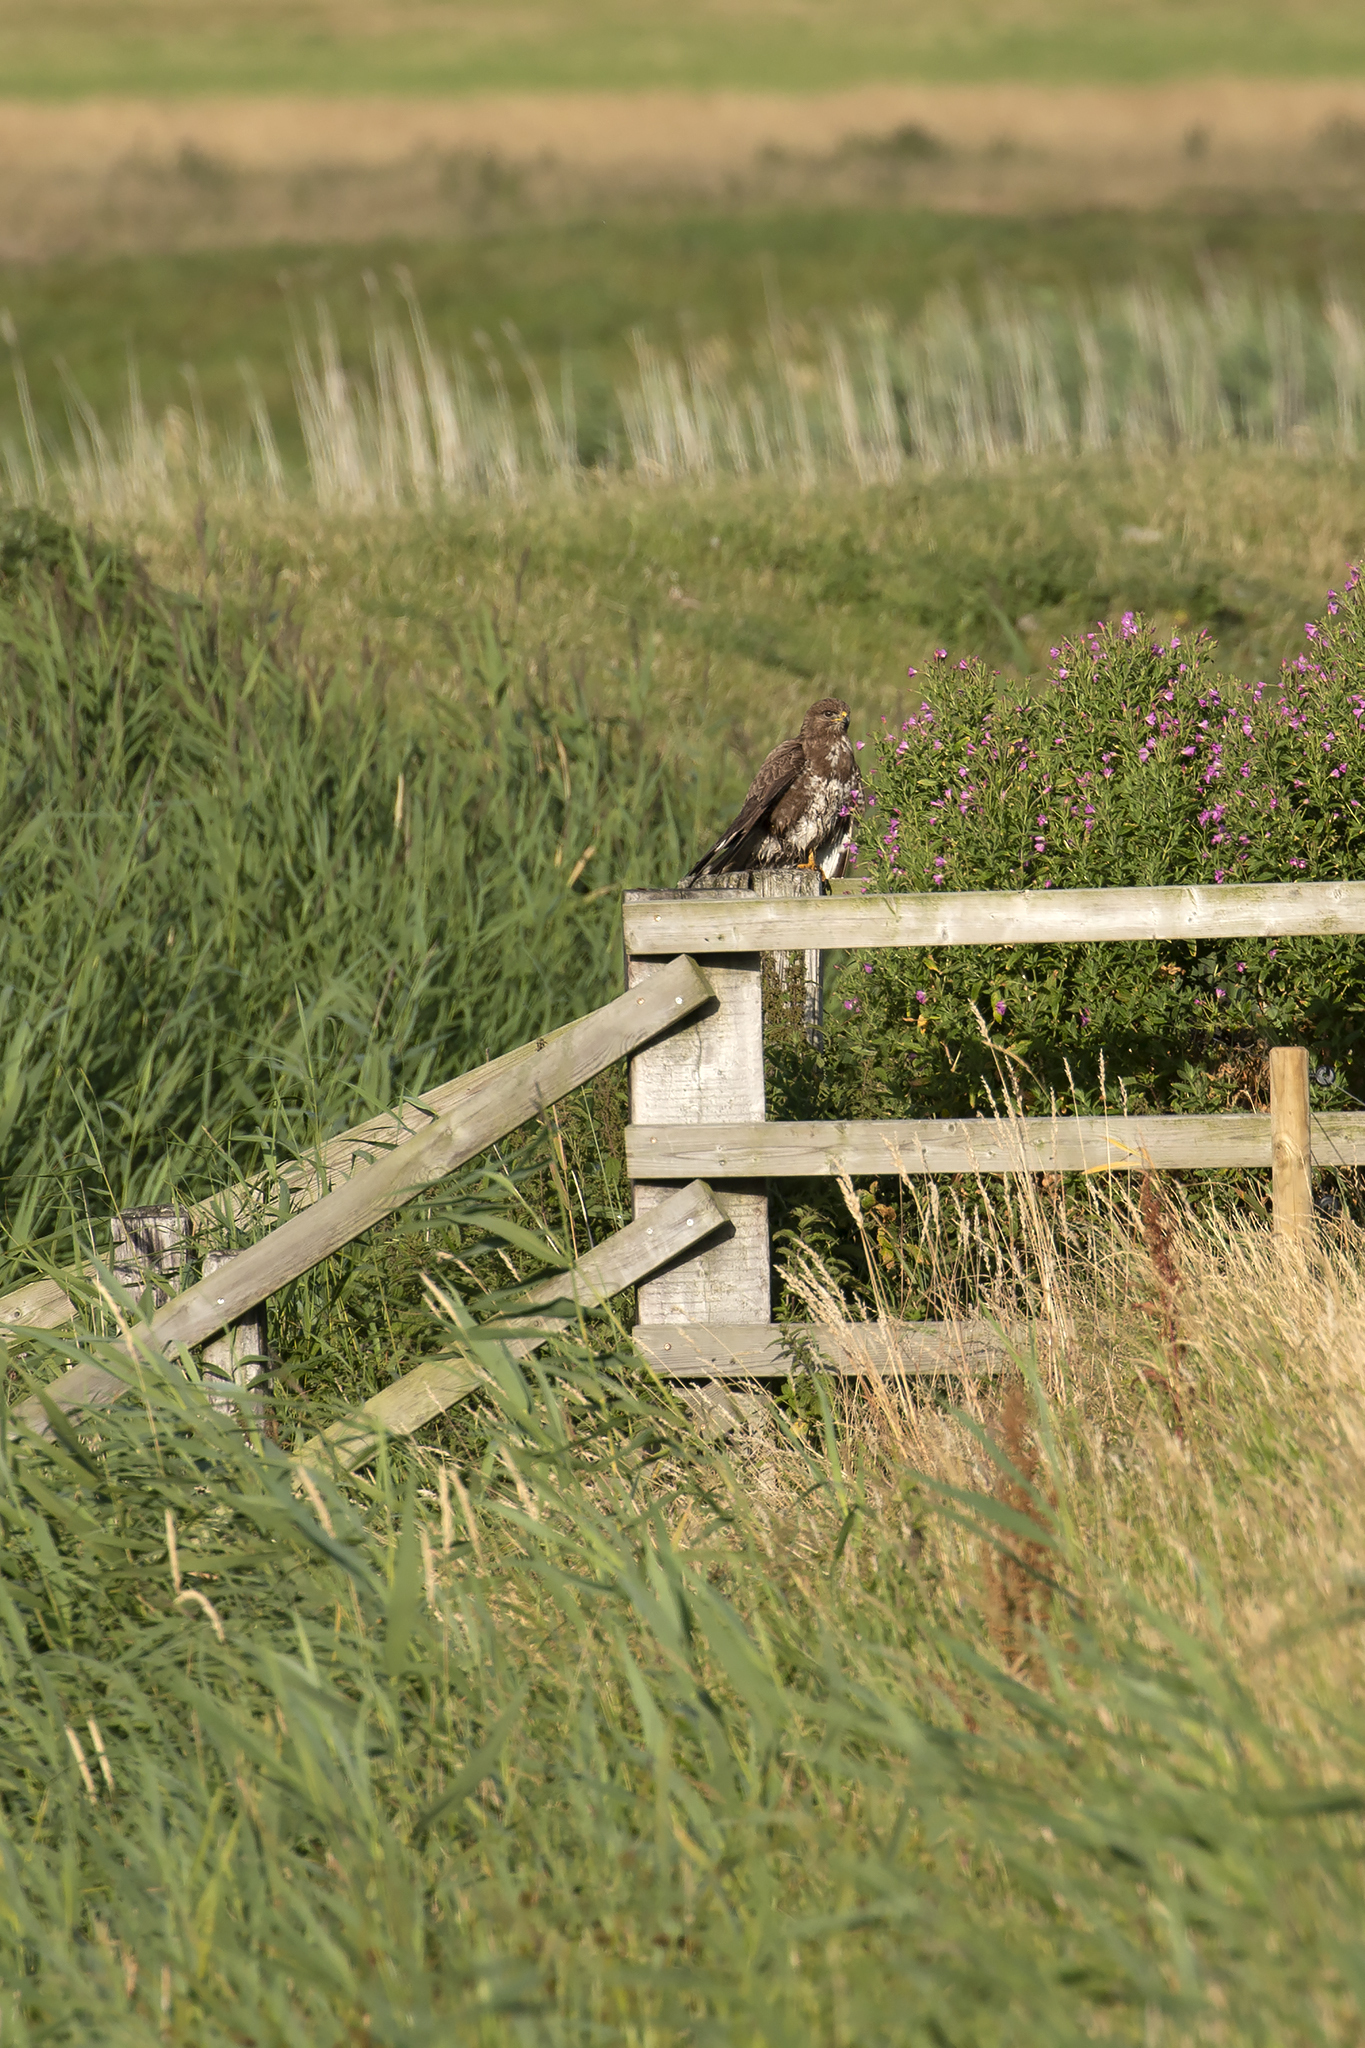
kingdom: Animalia
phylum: Chordata
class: Aves
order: Accipitriformes
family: Accipitridae
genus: Buteo
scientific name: Buteo buteo
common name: Common buzzard
